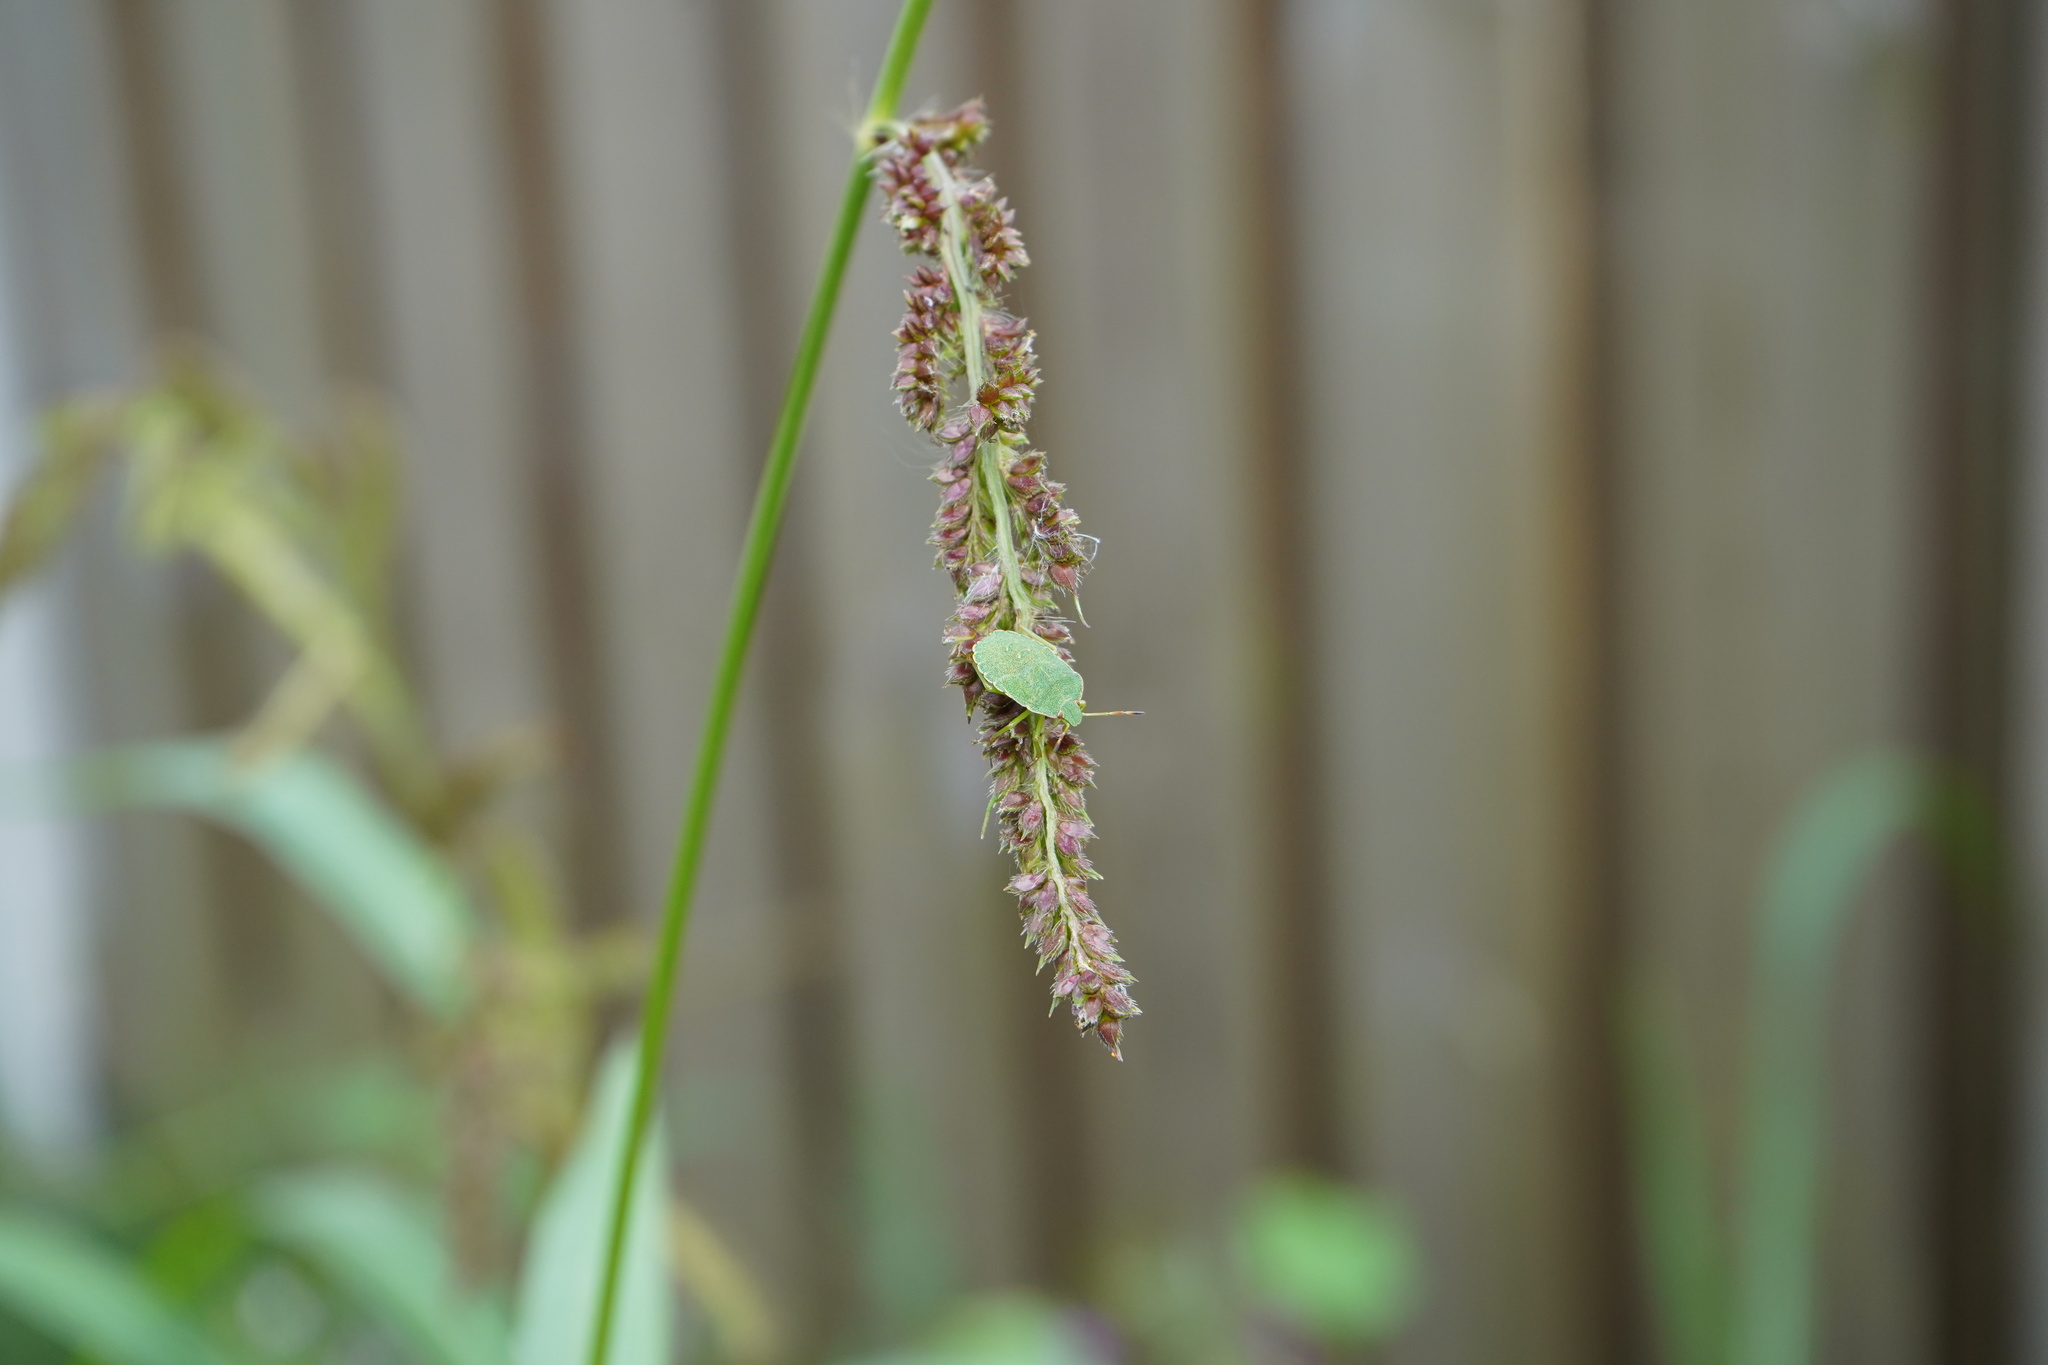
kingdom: Animalia
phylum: Arthropoda
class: Insecta
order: Hemiptera
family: Pentatomidae
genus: Palomena
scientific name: Palomena prasina
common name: Green shieldbug
